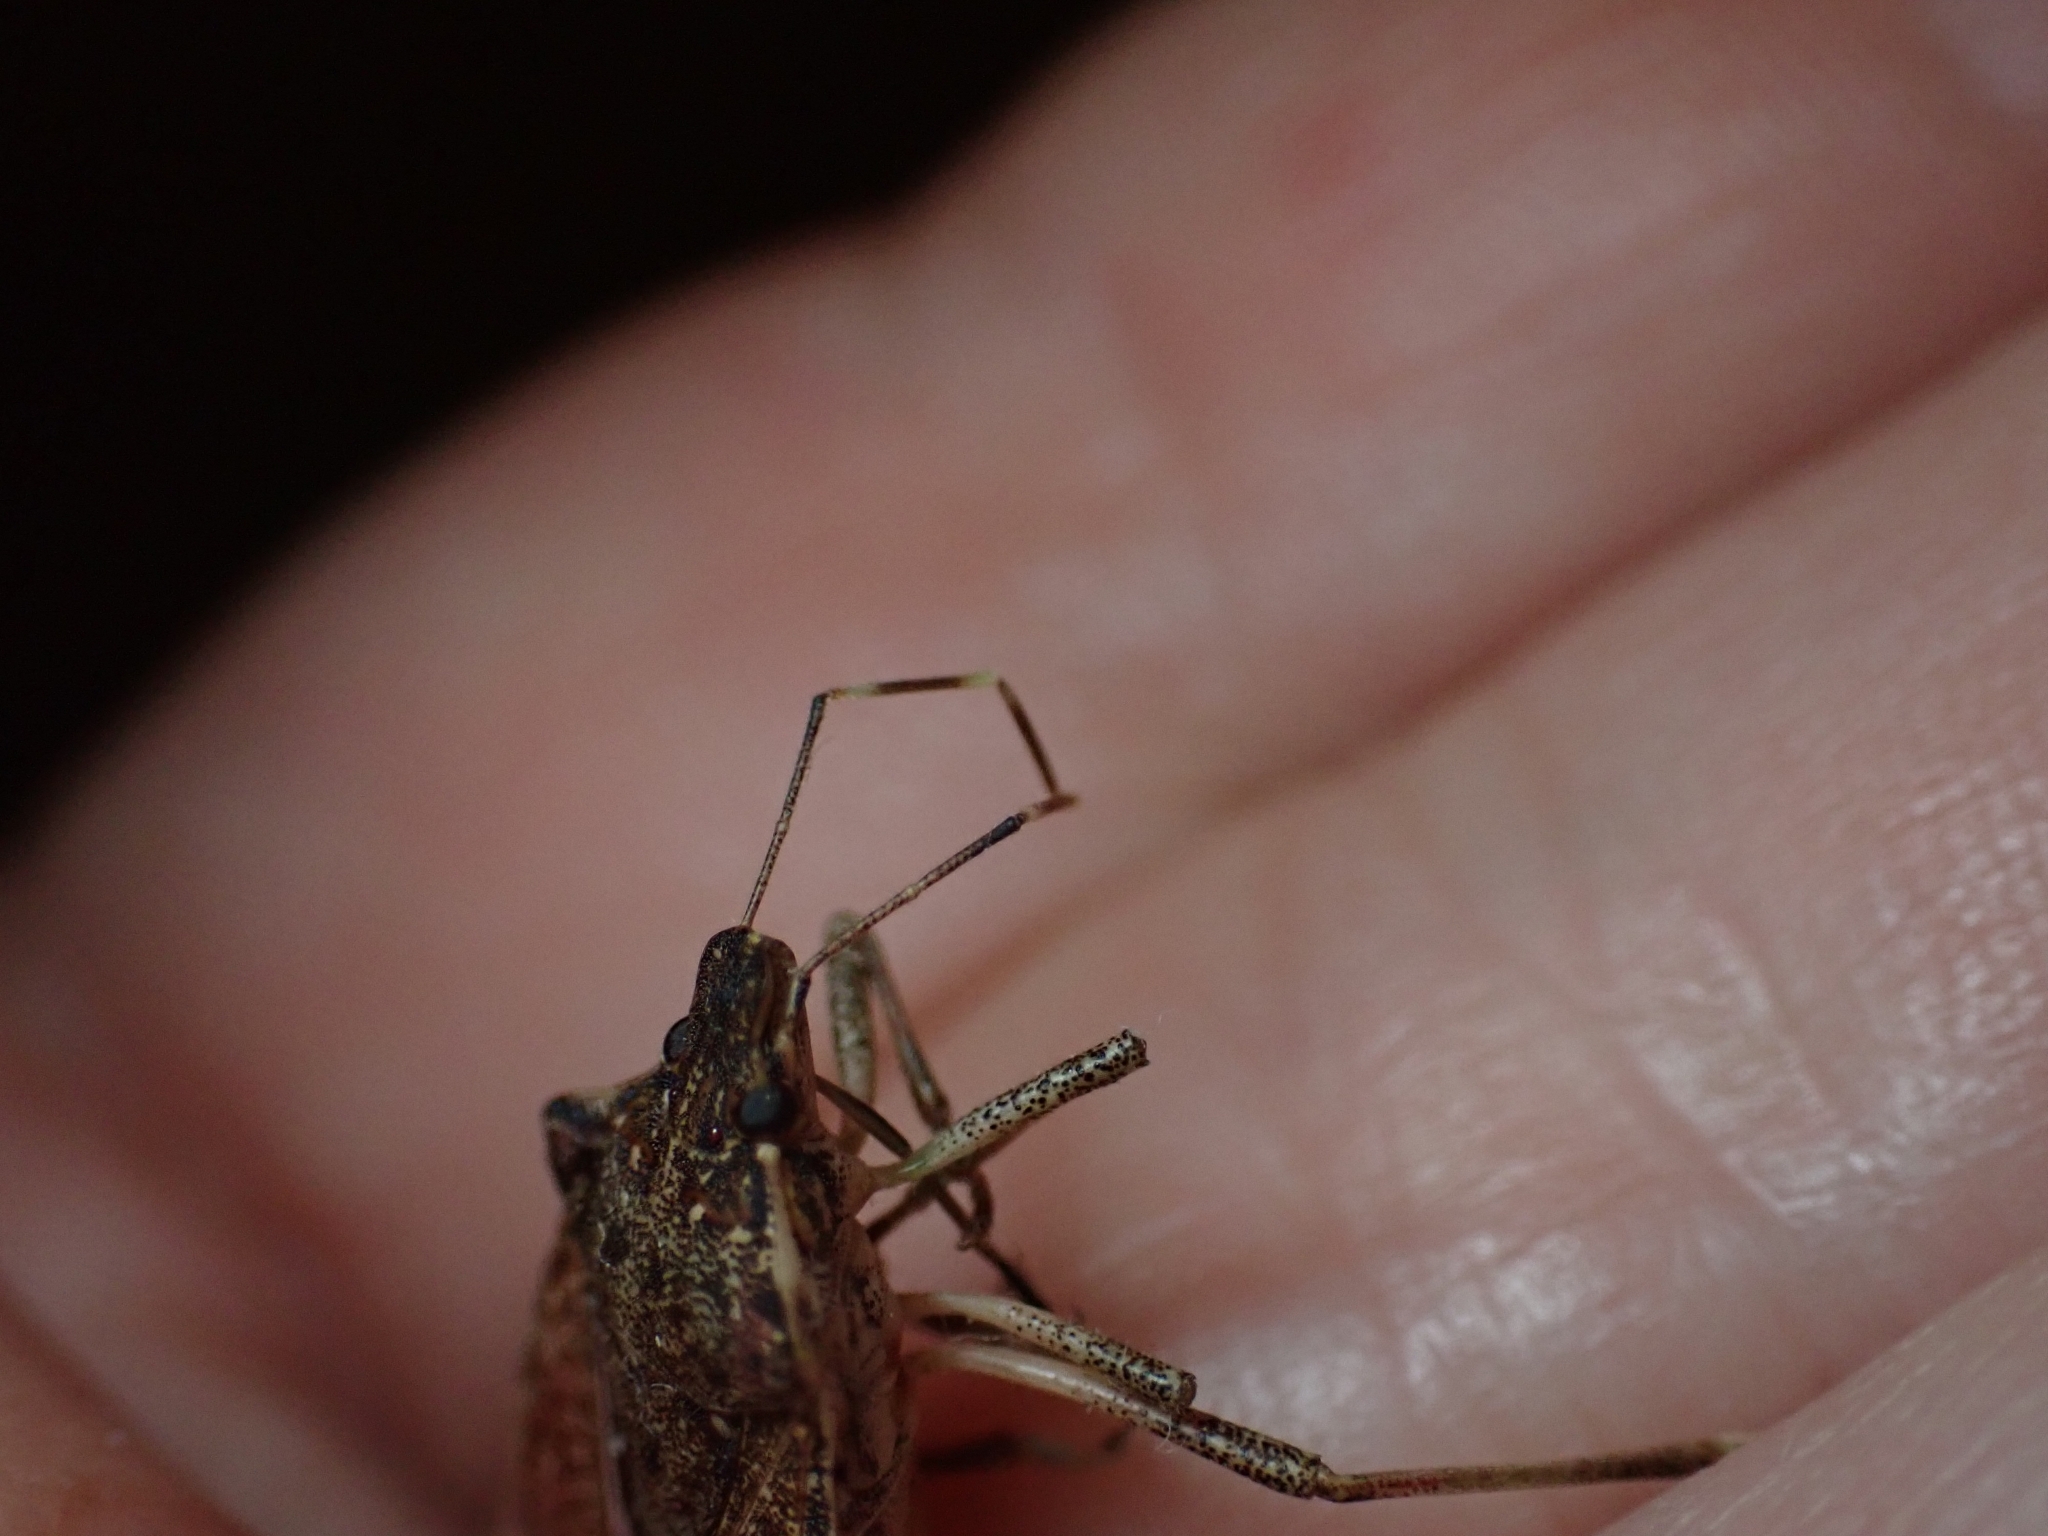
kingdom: Animalia
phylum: Arthropoda
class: Insecta
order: Hemiptera
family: Pentatomidae
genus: Halyomorpha
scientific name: Halyomorpha halys
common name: Brown marmorated stink bug
